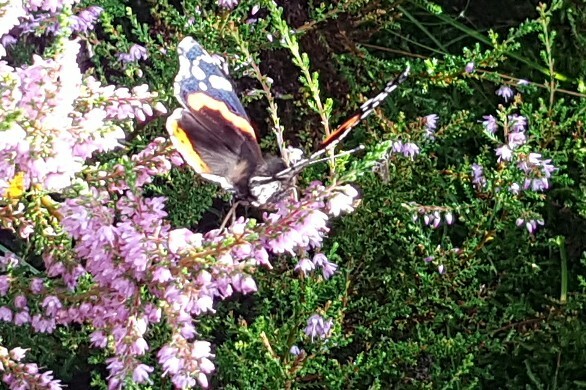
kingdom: Animalia
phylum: Arthropoda
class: Insecta
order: Lepidoptera
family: Nymphalidae
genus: Vanessa
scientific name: Vanessa atalanta
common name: Red admiral
